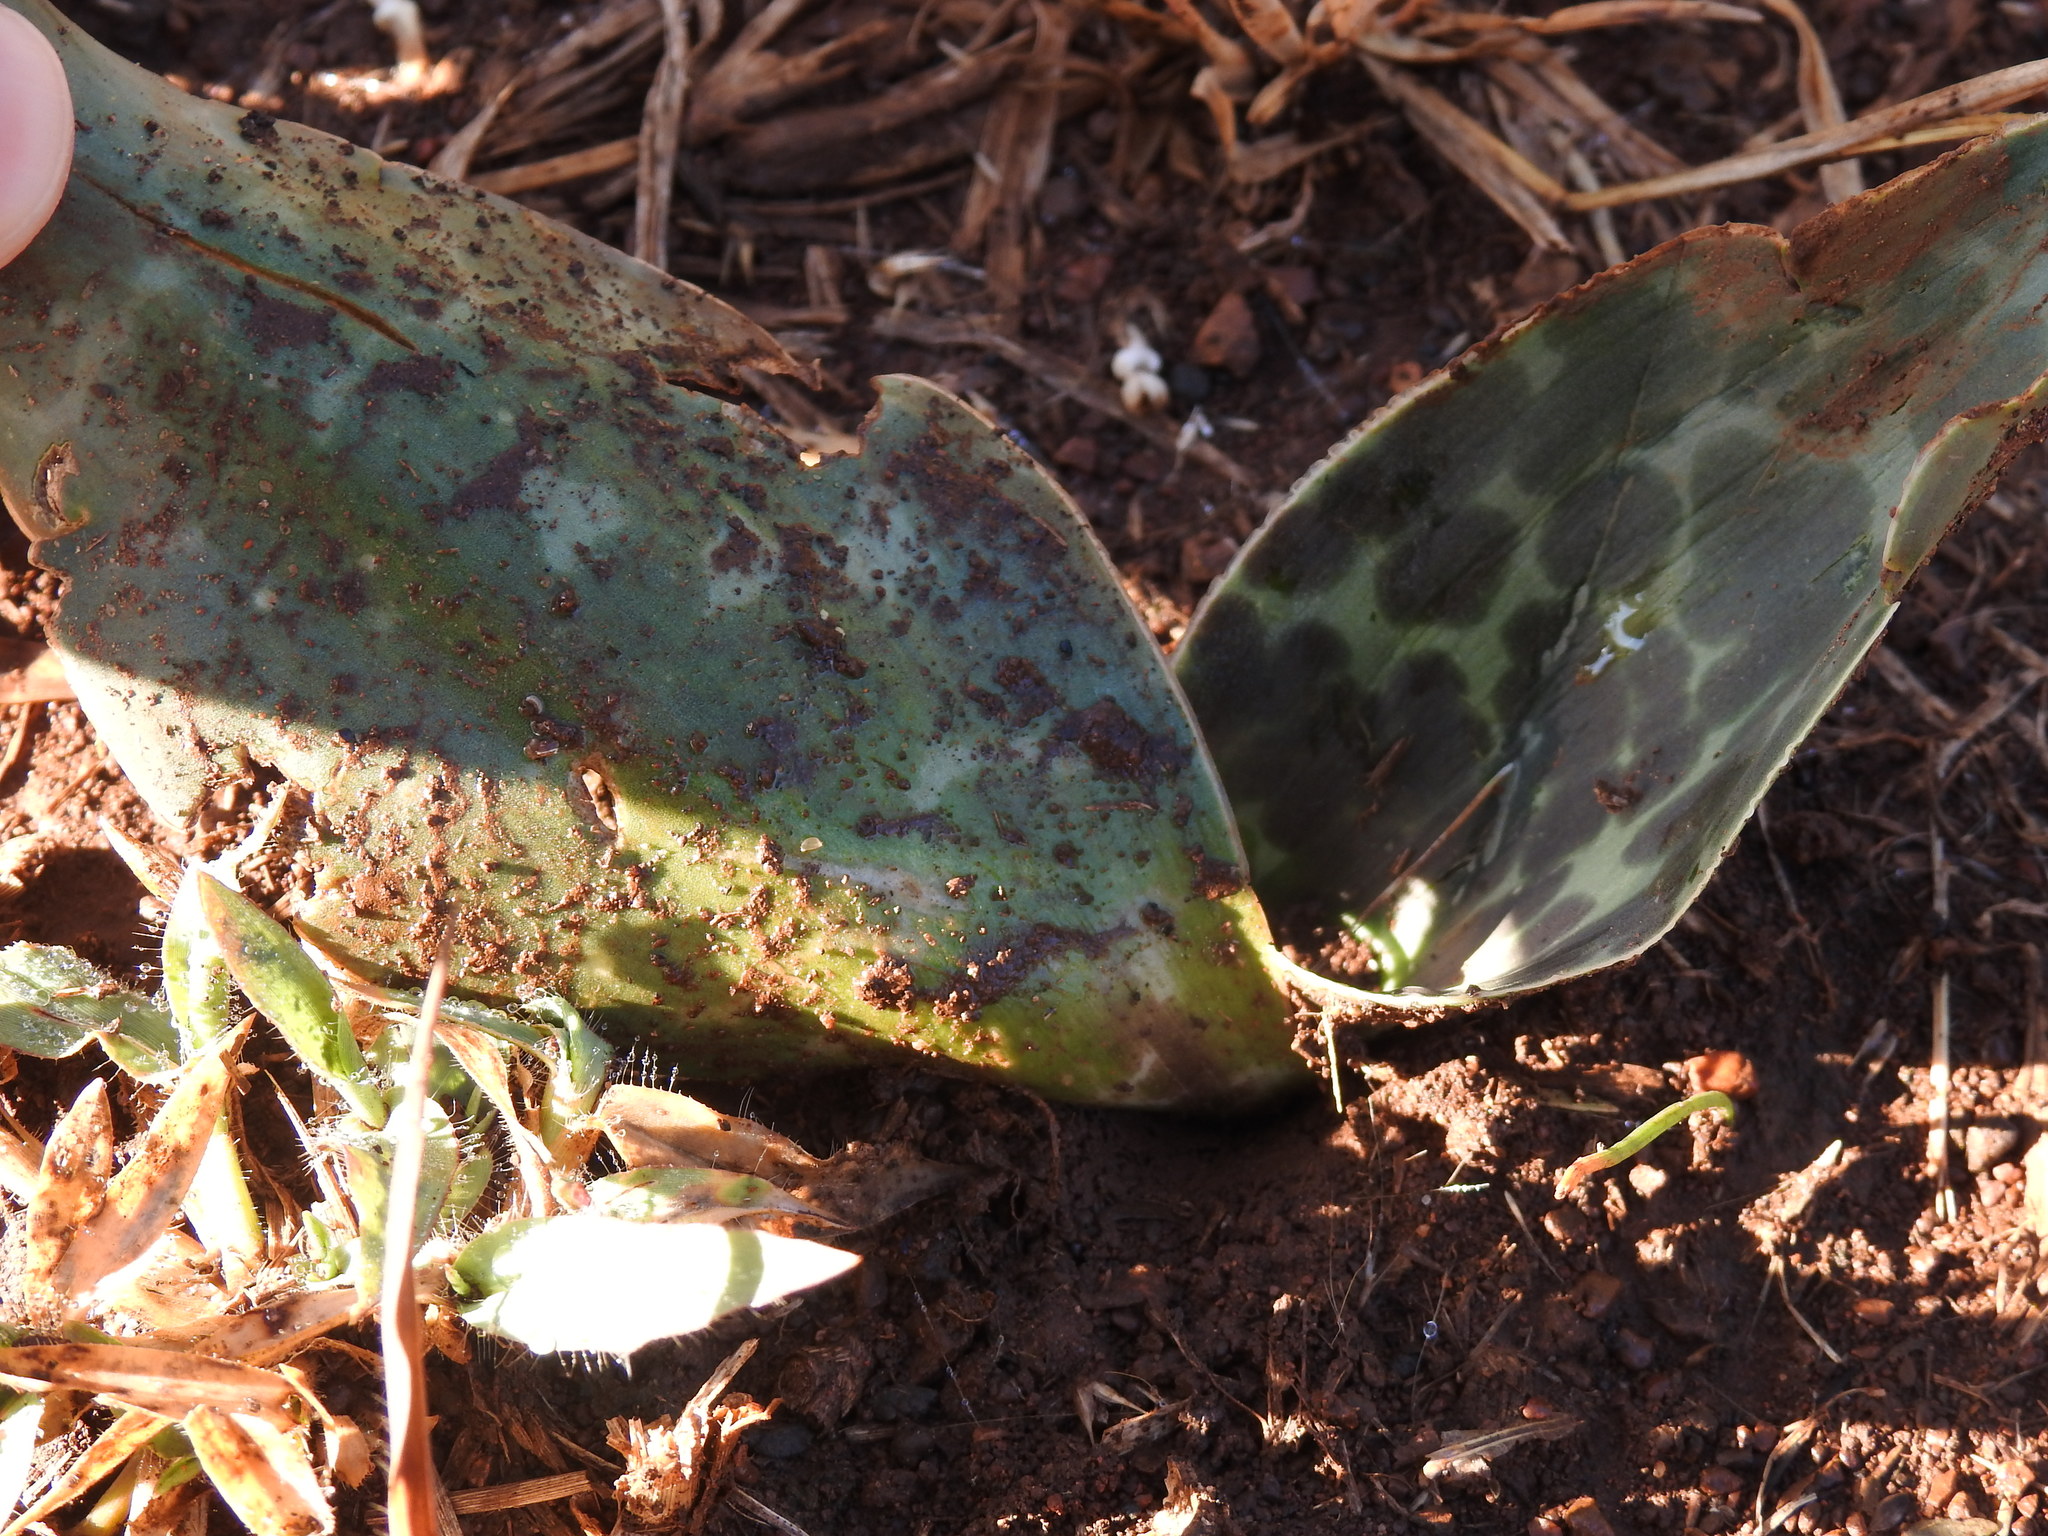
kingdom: Plantae
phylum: Tracheophyta
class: Liliopsida
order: Asparagales
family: Asparagaceae
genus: Ledebouria
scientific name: Ledebouria luteola
